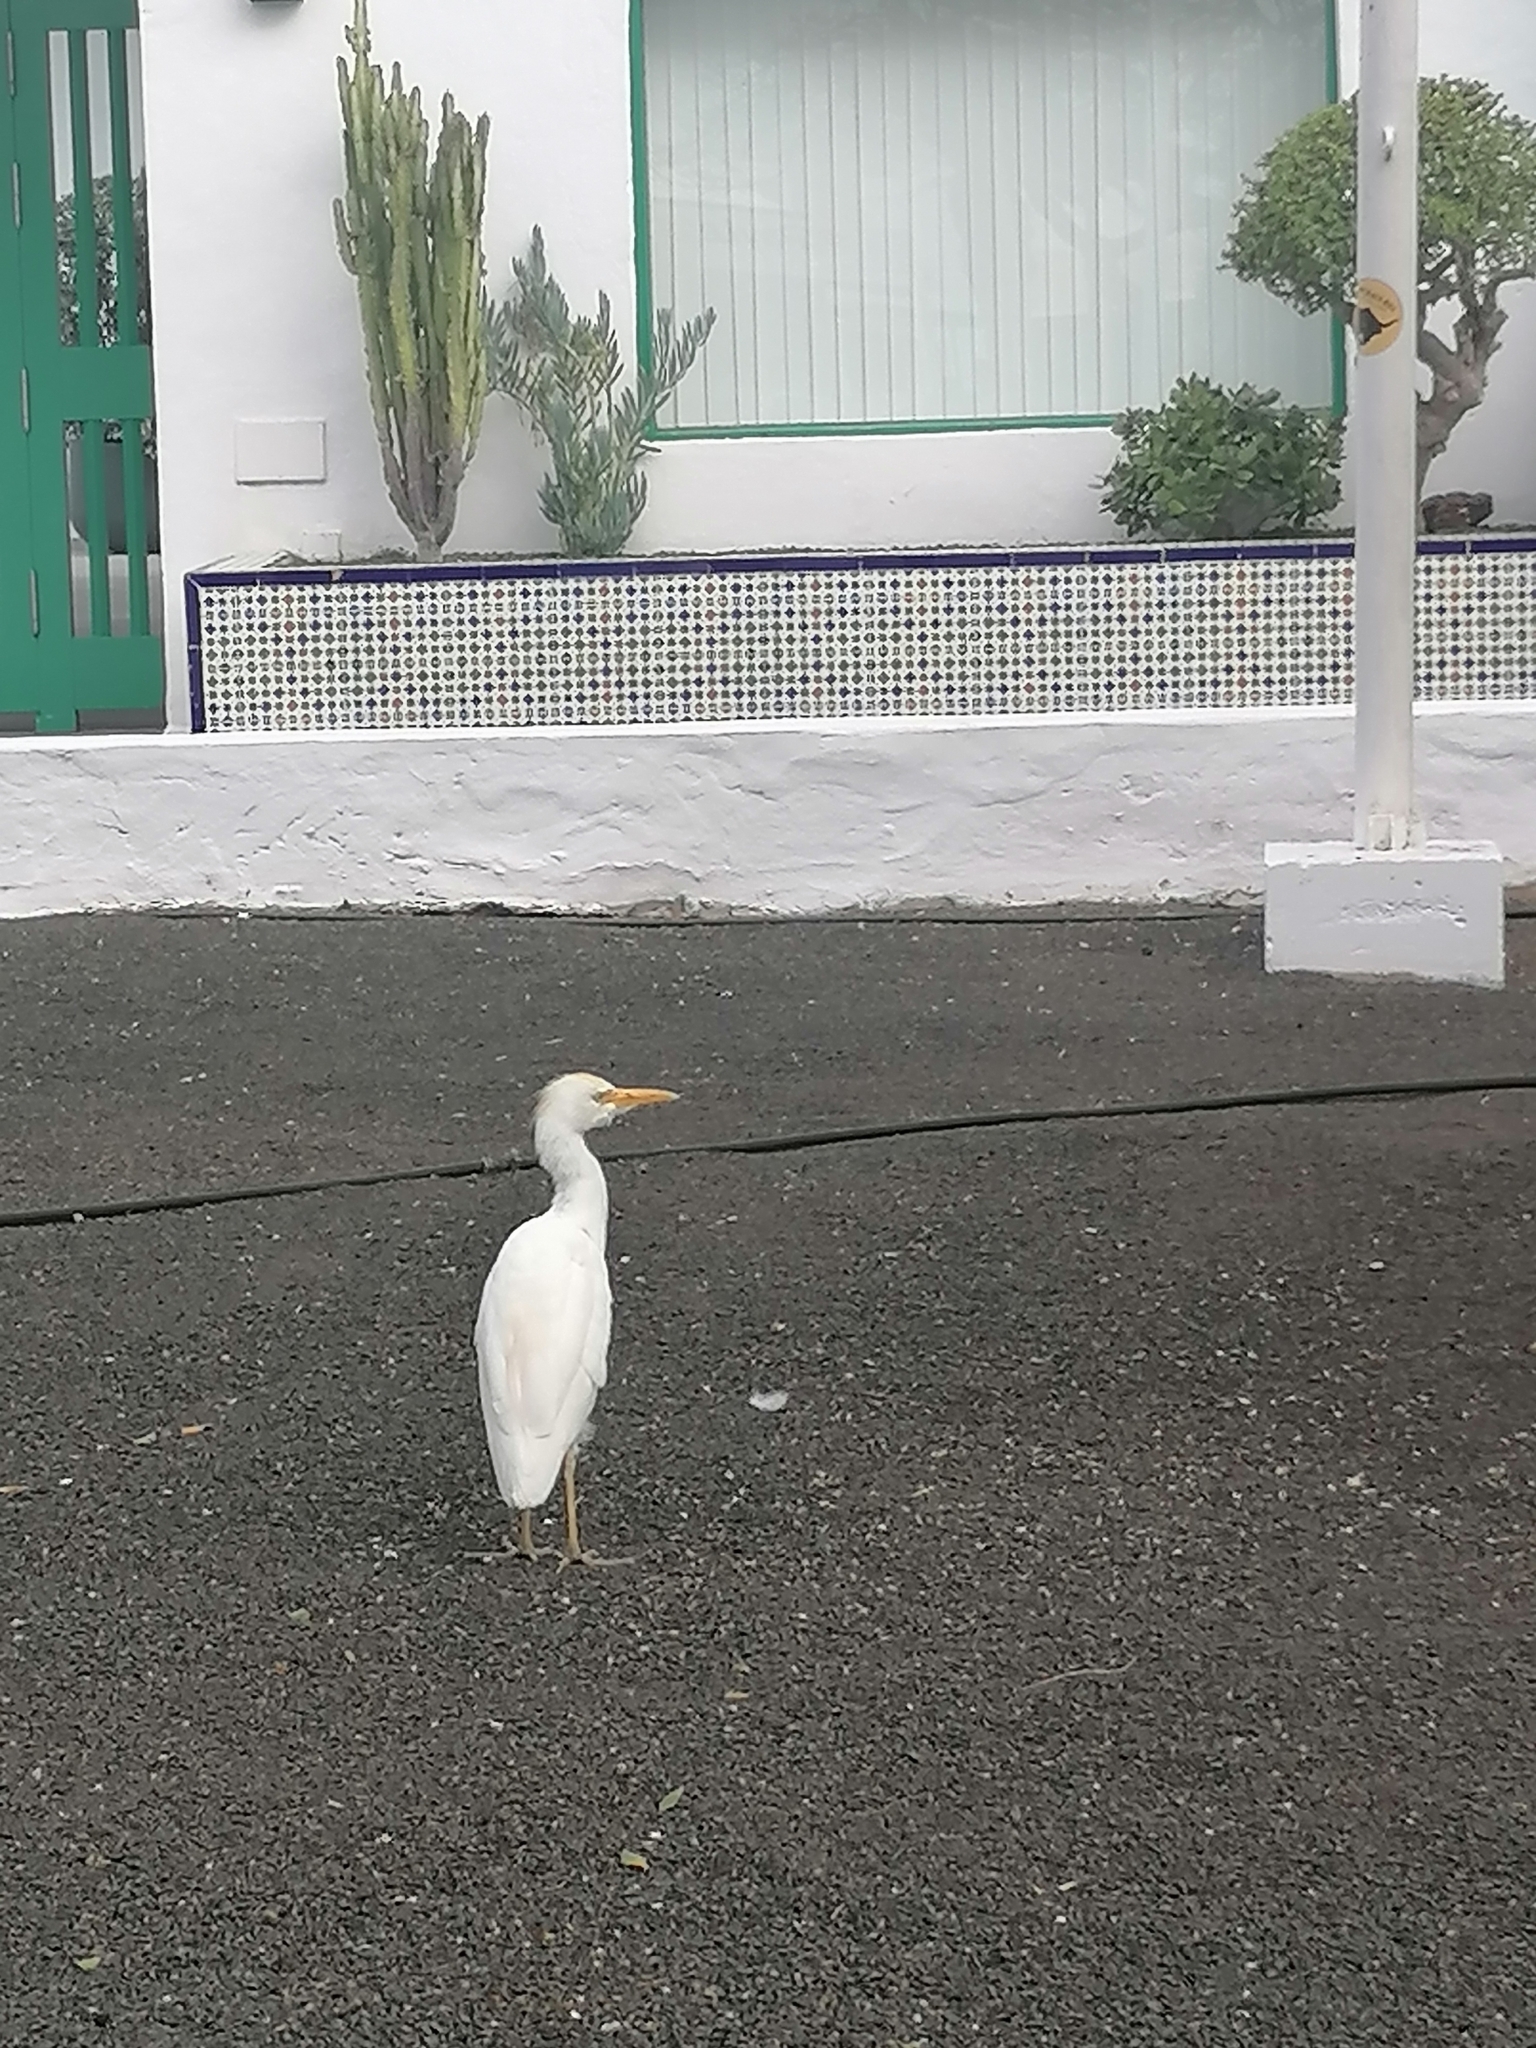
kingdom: Animalia
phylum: Chordata
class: Aves
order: Pelecaniformes
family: Ardeidae
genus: Bubulcus
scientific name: Bubulcus ibis
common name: Cattle egret
